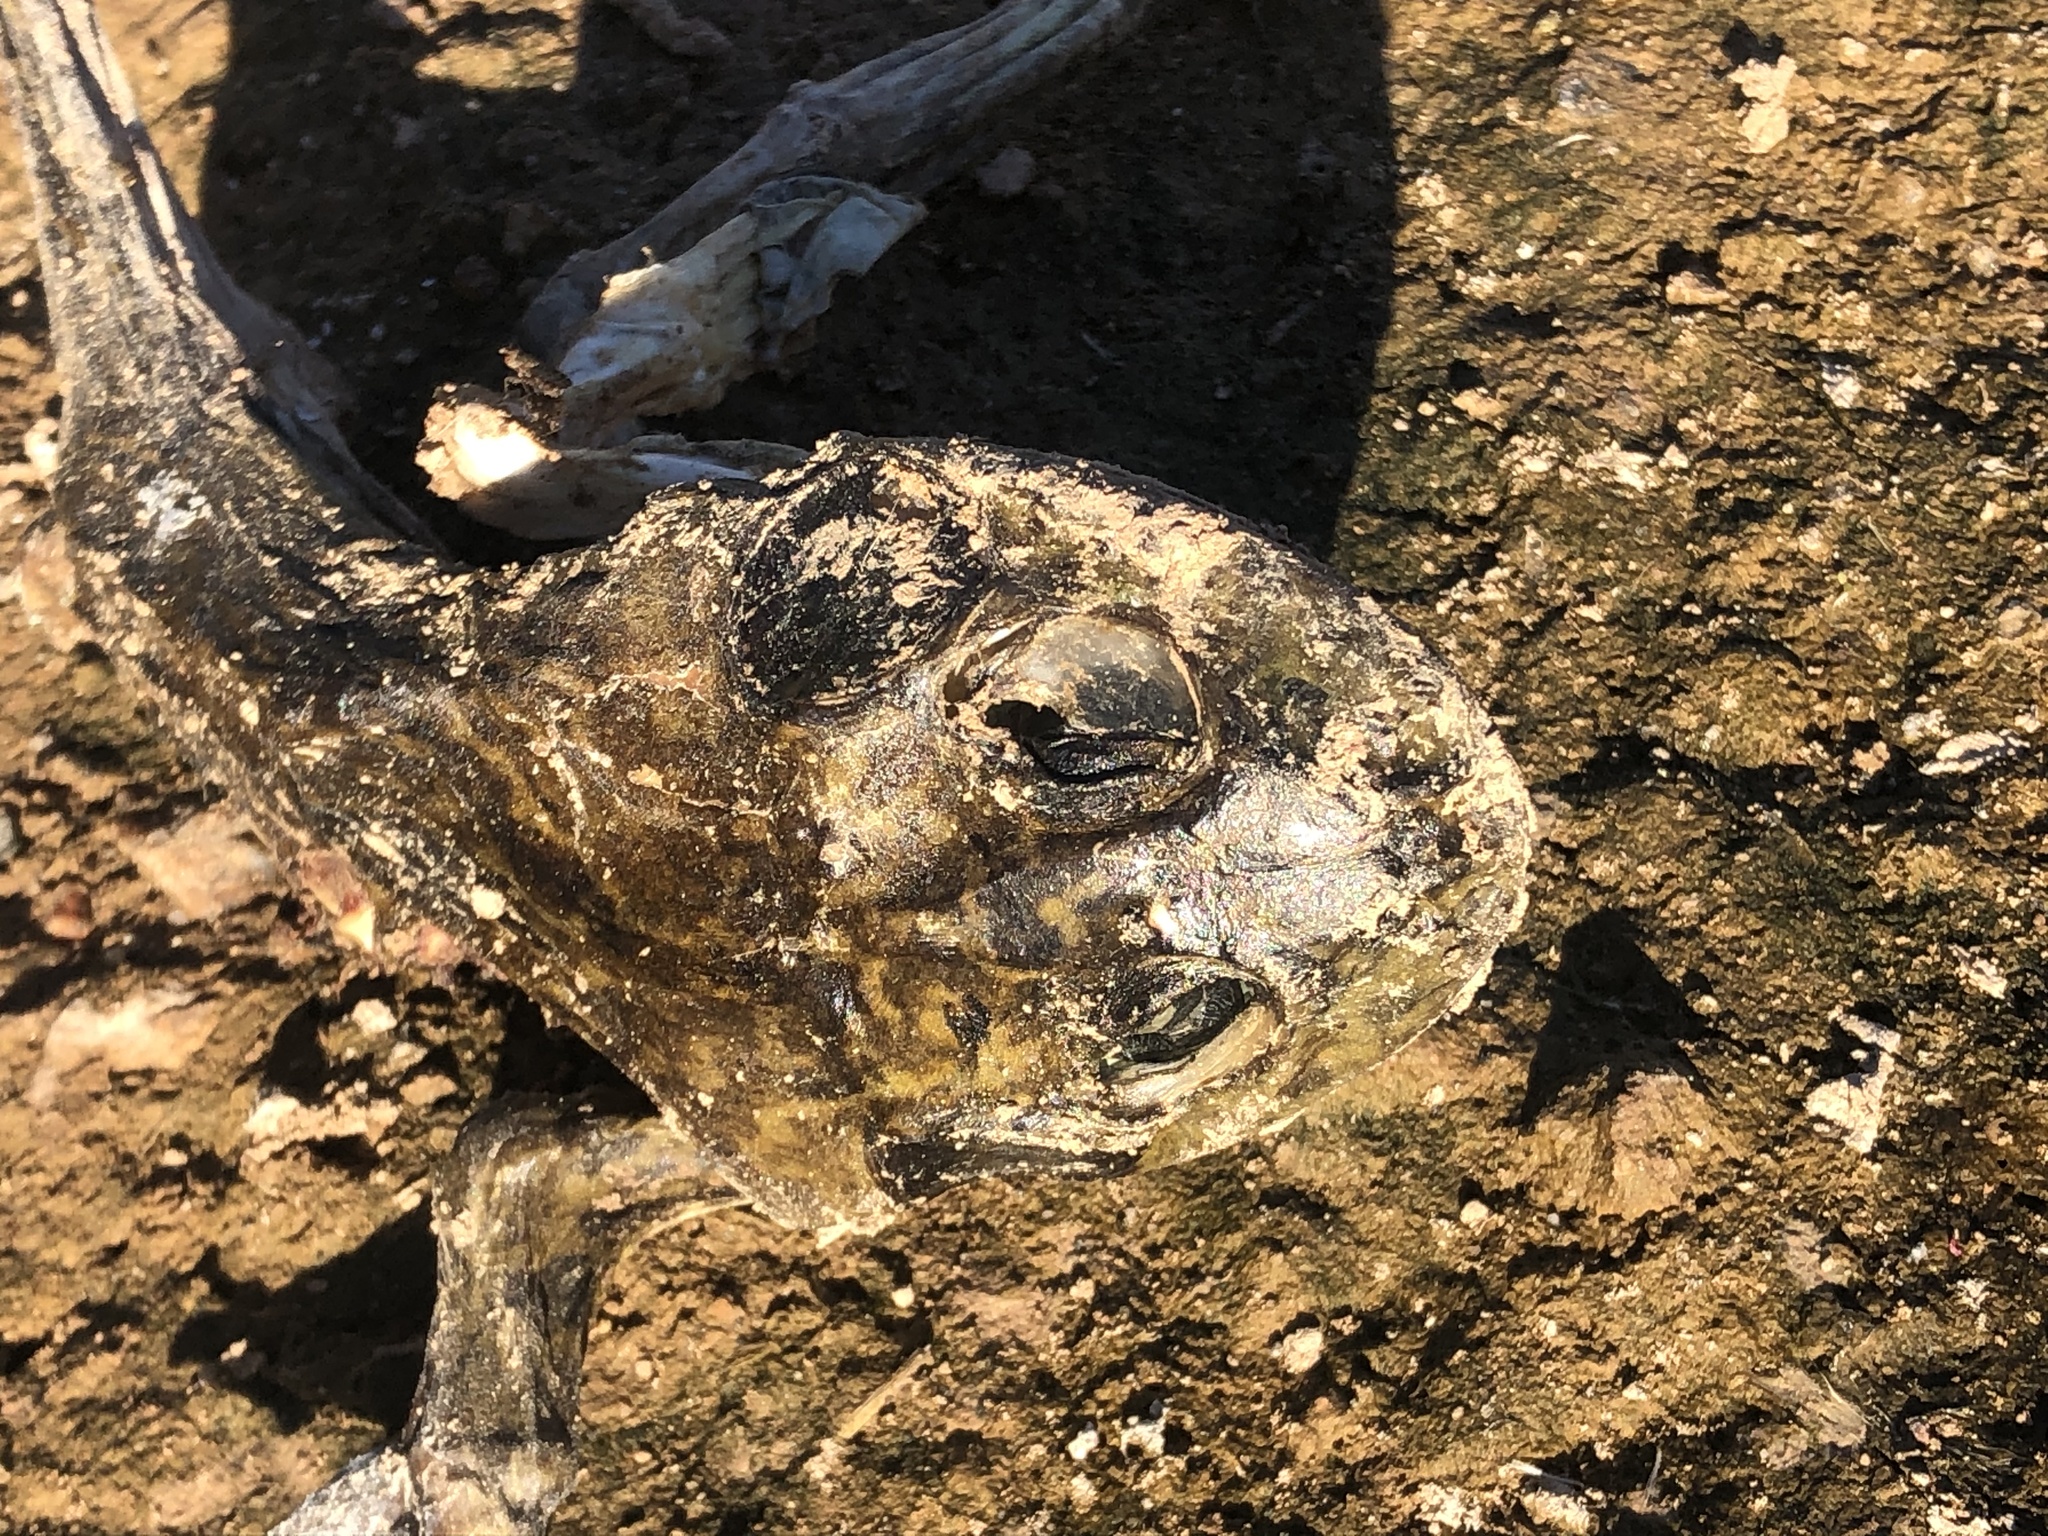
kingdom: Animalia
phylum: Chordata
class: Amphibia
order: Anura
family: Ranidae
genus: Lithobates
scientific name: Lithobates catesbeianus
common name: American bullfrog
